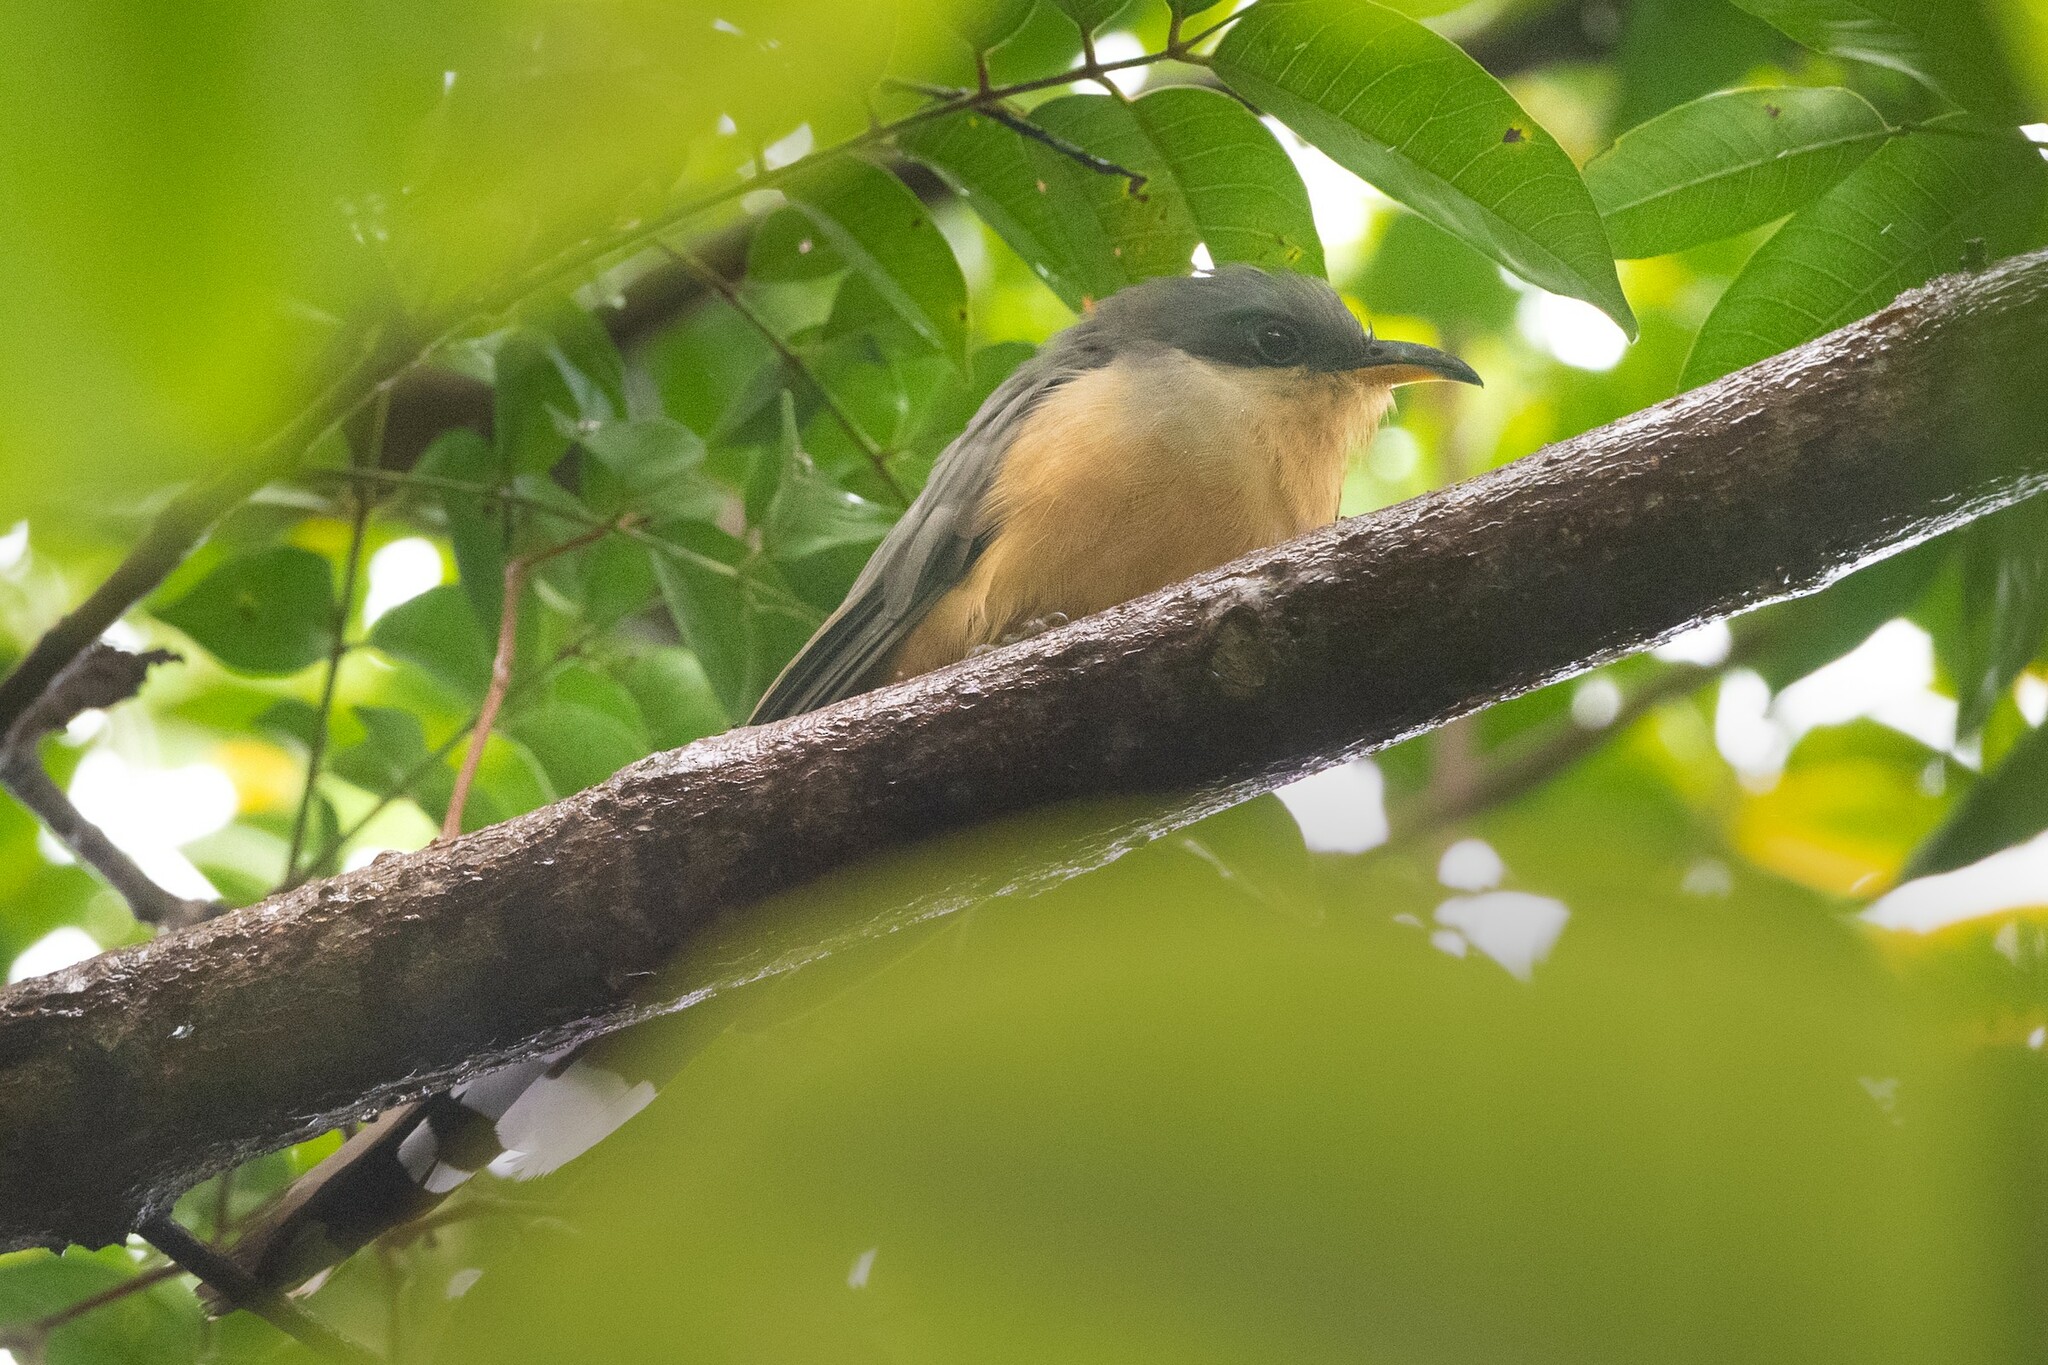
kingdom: Animalia
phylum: Chordata
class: Aves
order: Cuculiformes
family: Cuculidae
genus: Coccyzus
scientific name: Coccyzus minor
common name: Mangrove cuckoo
